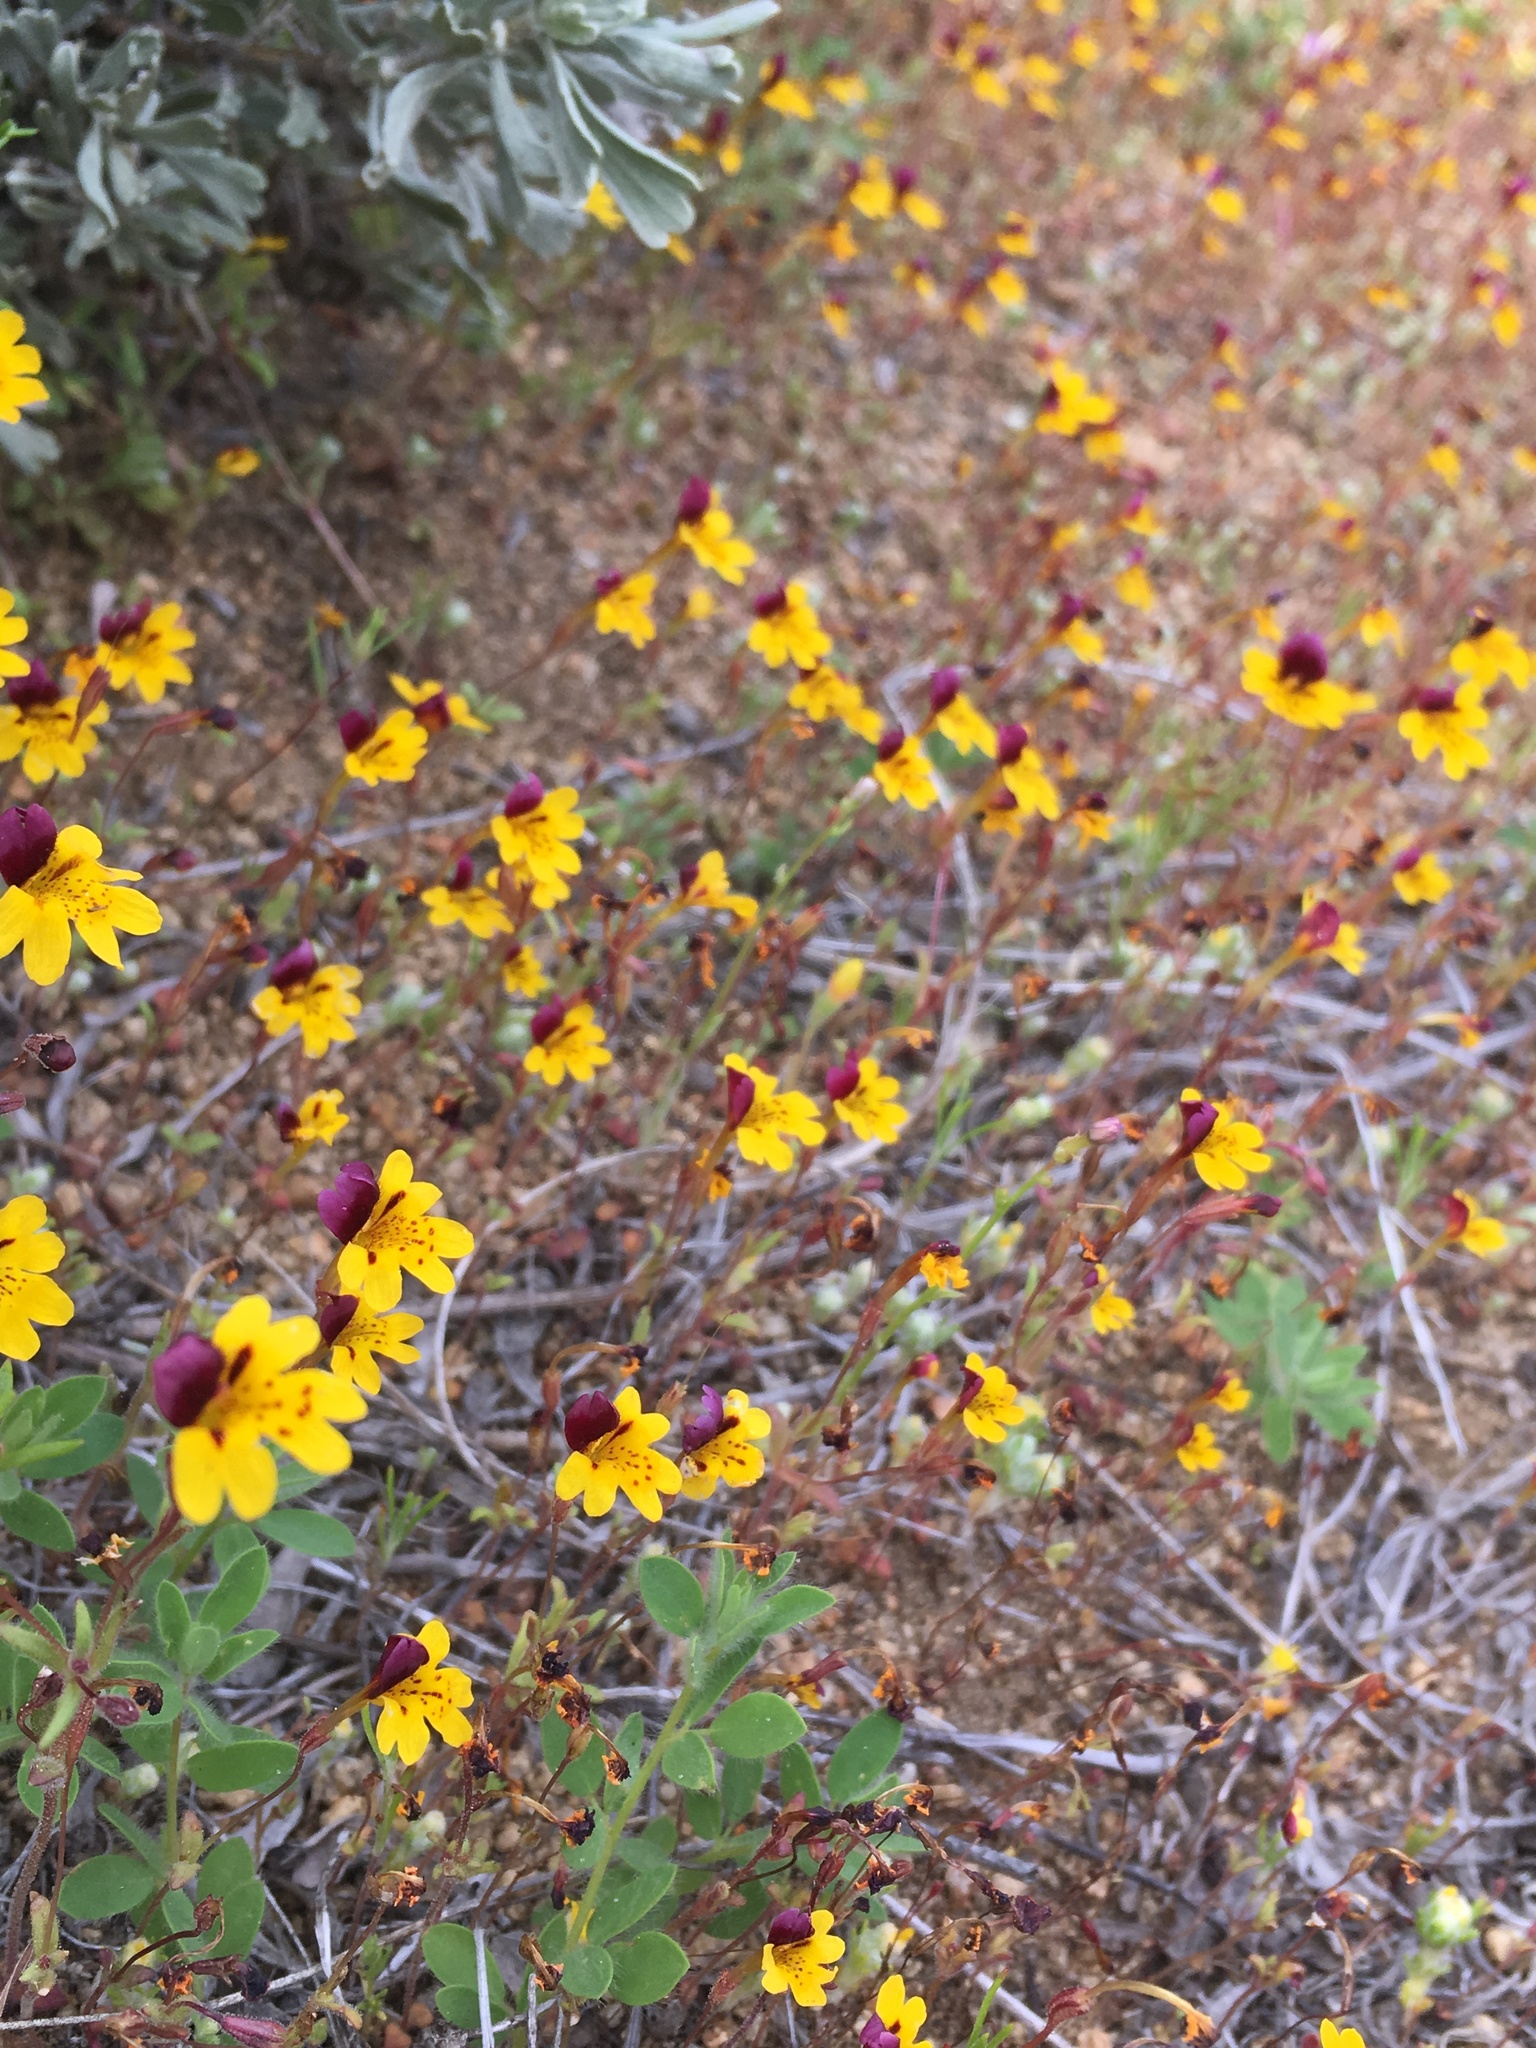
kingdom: Plantae
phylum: Tracheophyta
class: Magnoliopsida
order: Lamiales
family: Phrymaceae
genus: Erythranthe
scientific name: Erythranthe barbata
